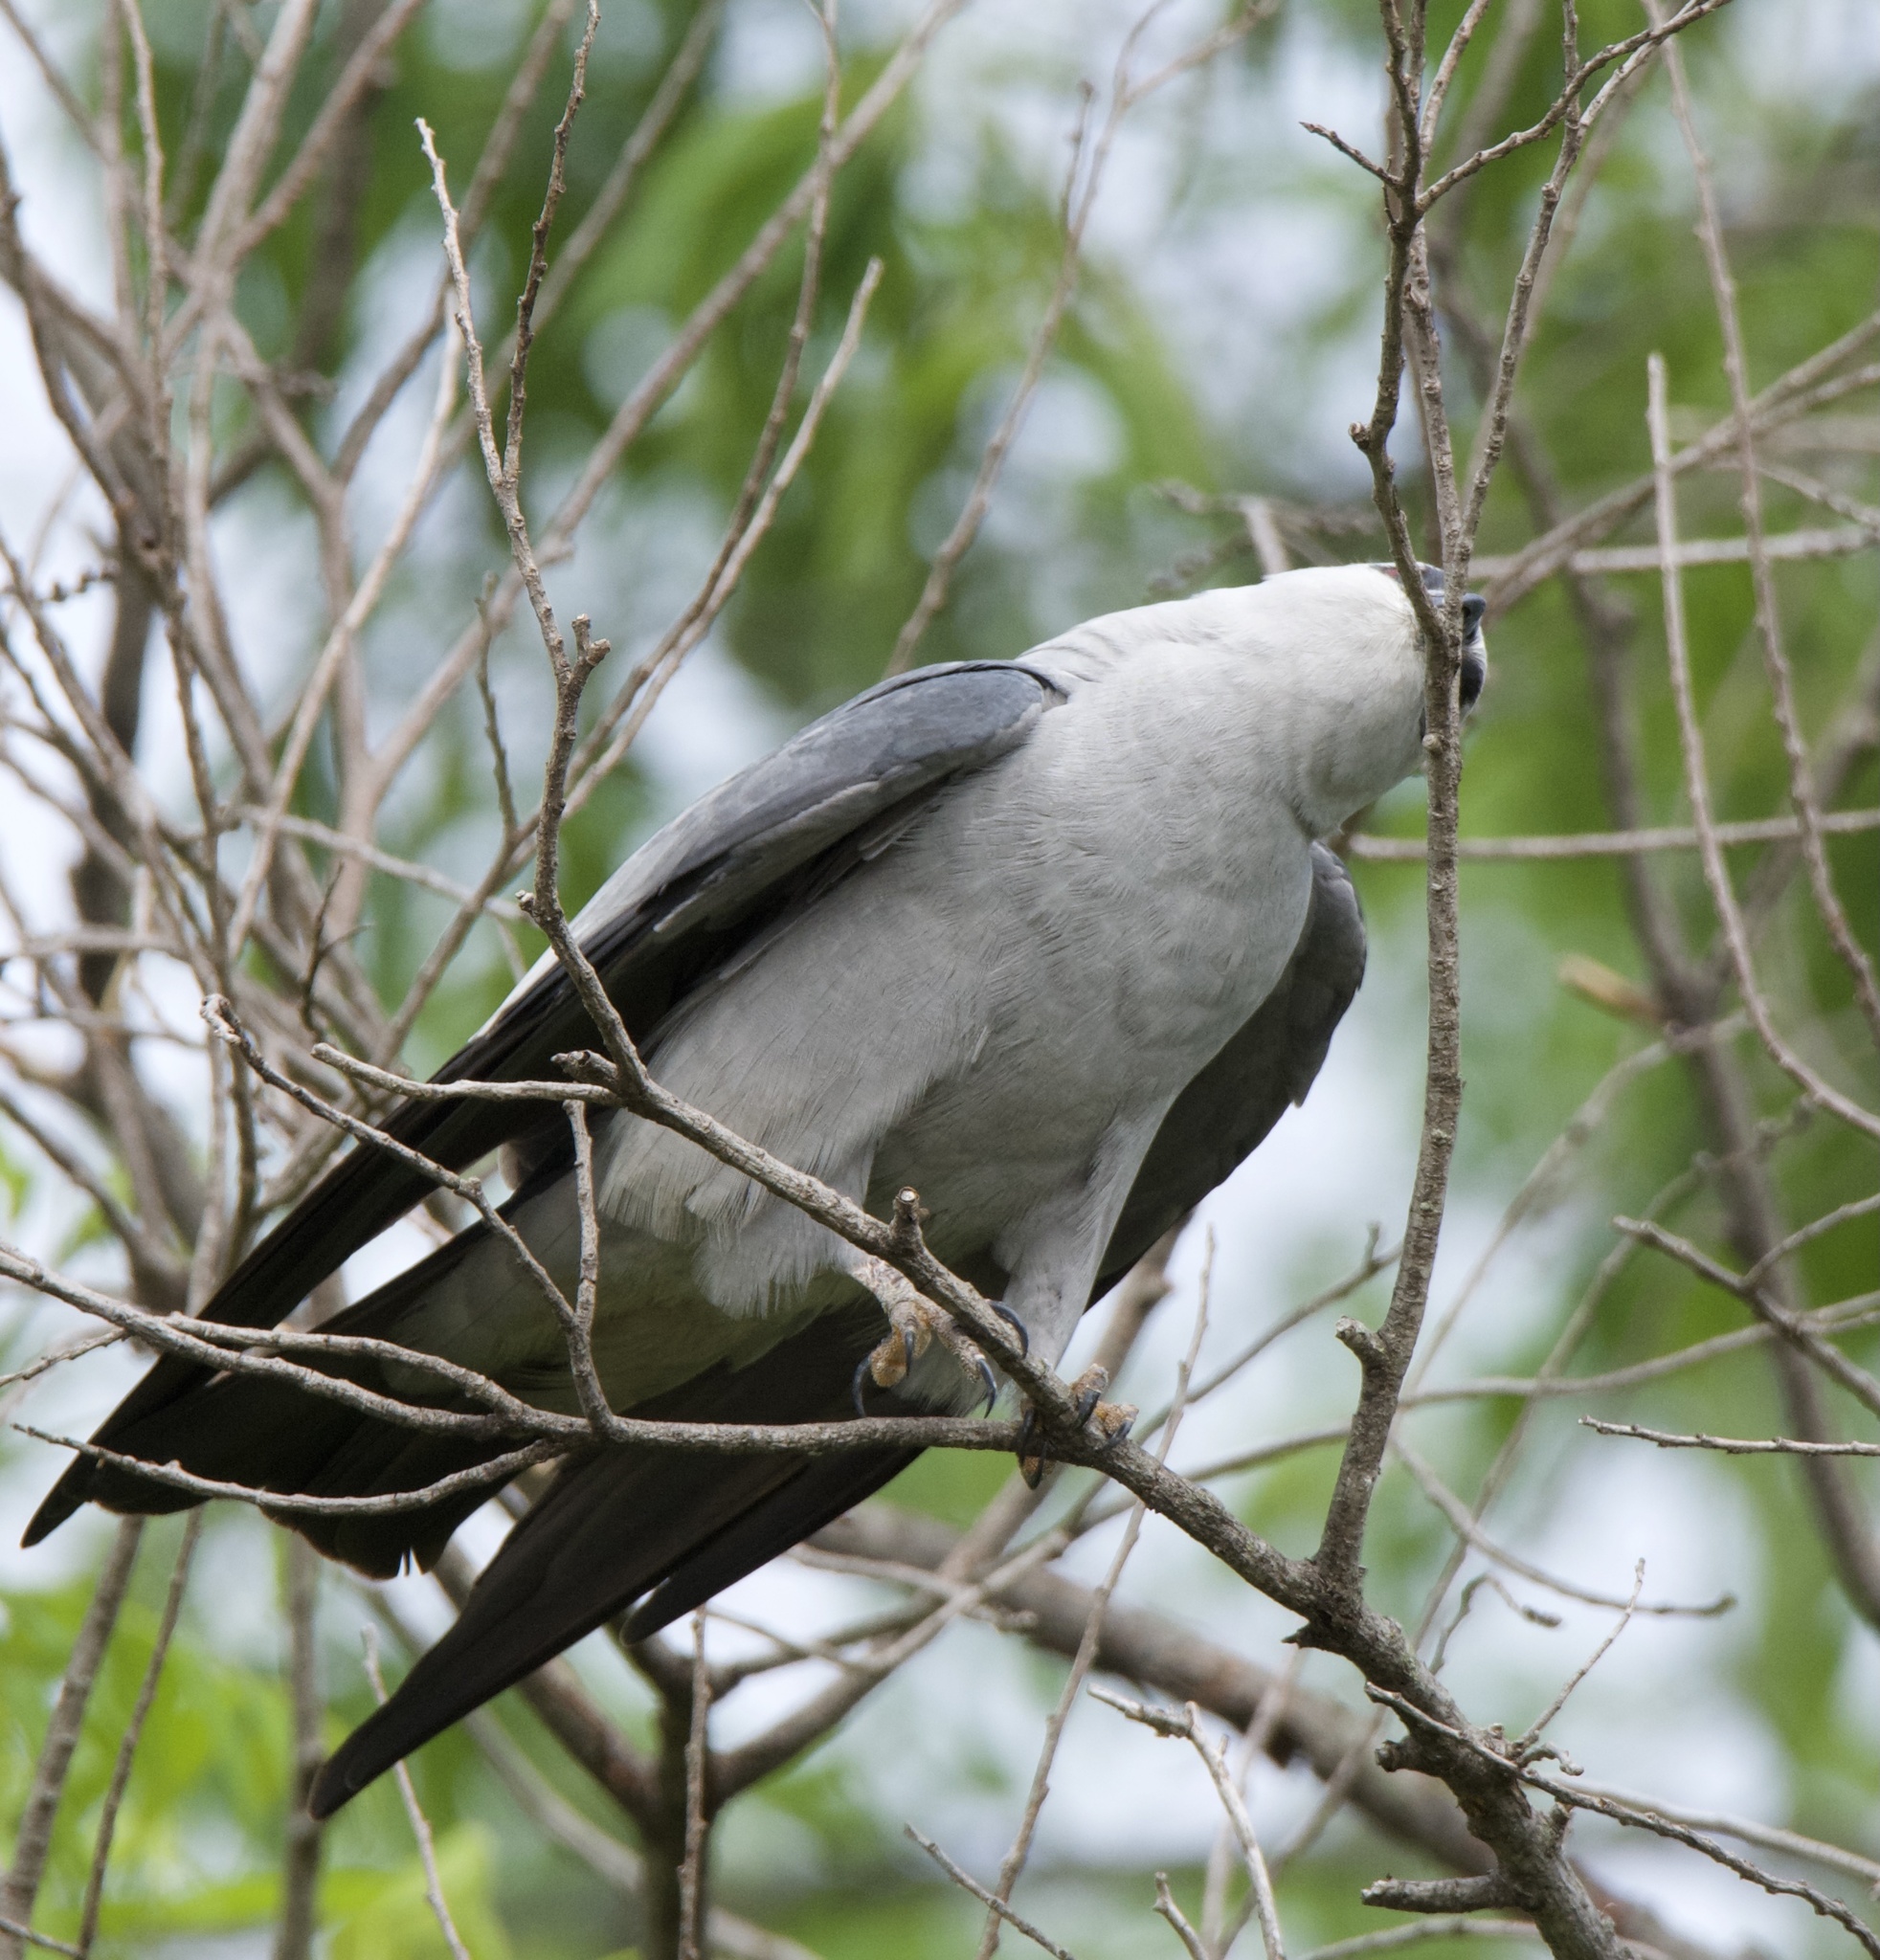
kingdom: Animalia
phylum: Chordata
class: Aves
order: Accipitriformes
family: Accipitridae
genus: Ictinia
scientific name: Ictinia mississippiensis
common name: Mississippi kite
